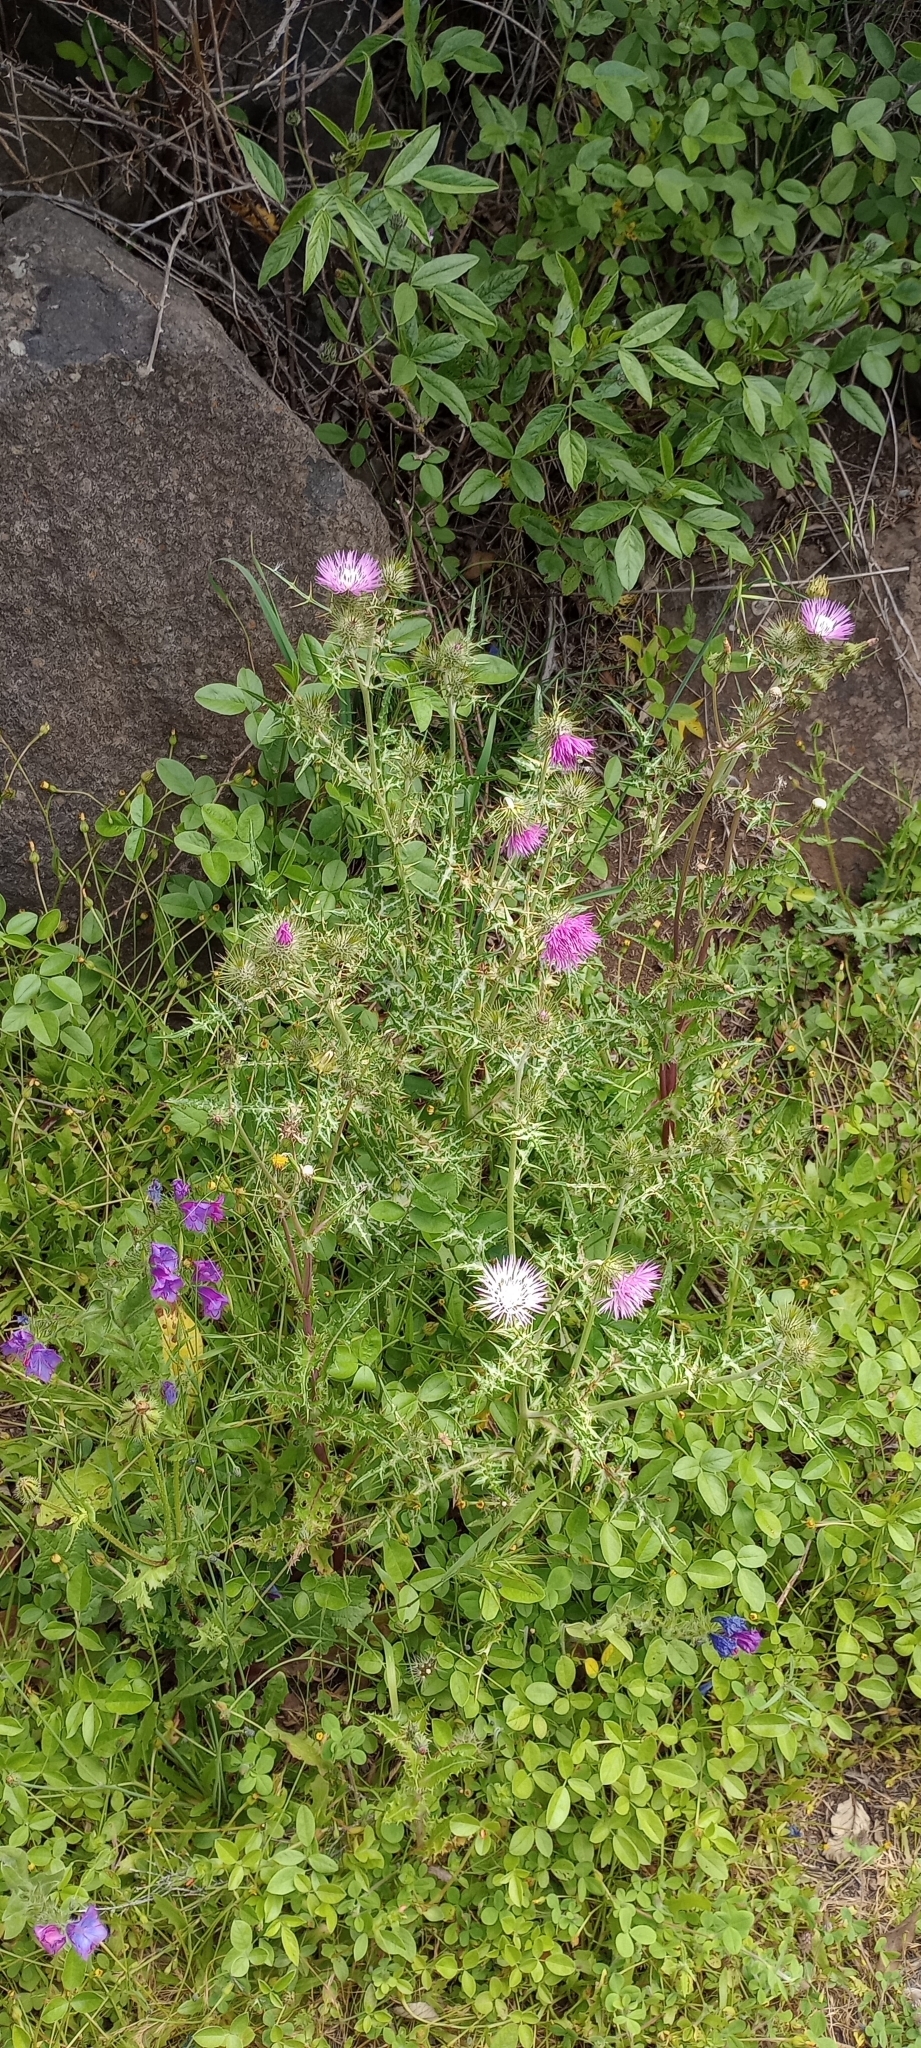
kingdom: Plantae
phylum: Tracheophyta
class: Magnoliopsida
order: Asterales
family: Asteraceae
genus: Galactites
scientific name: Galactites tomentosa
